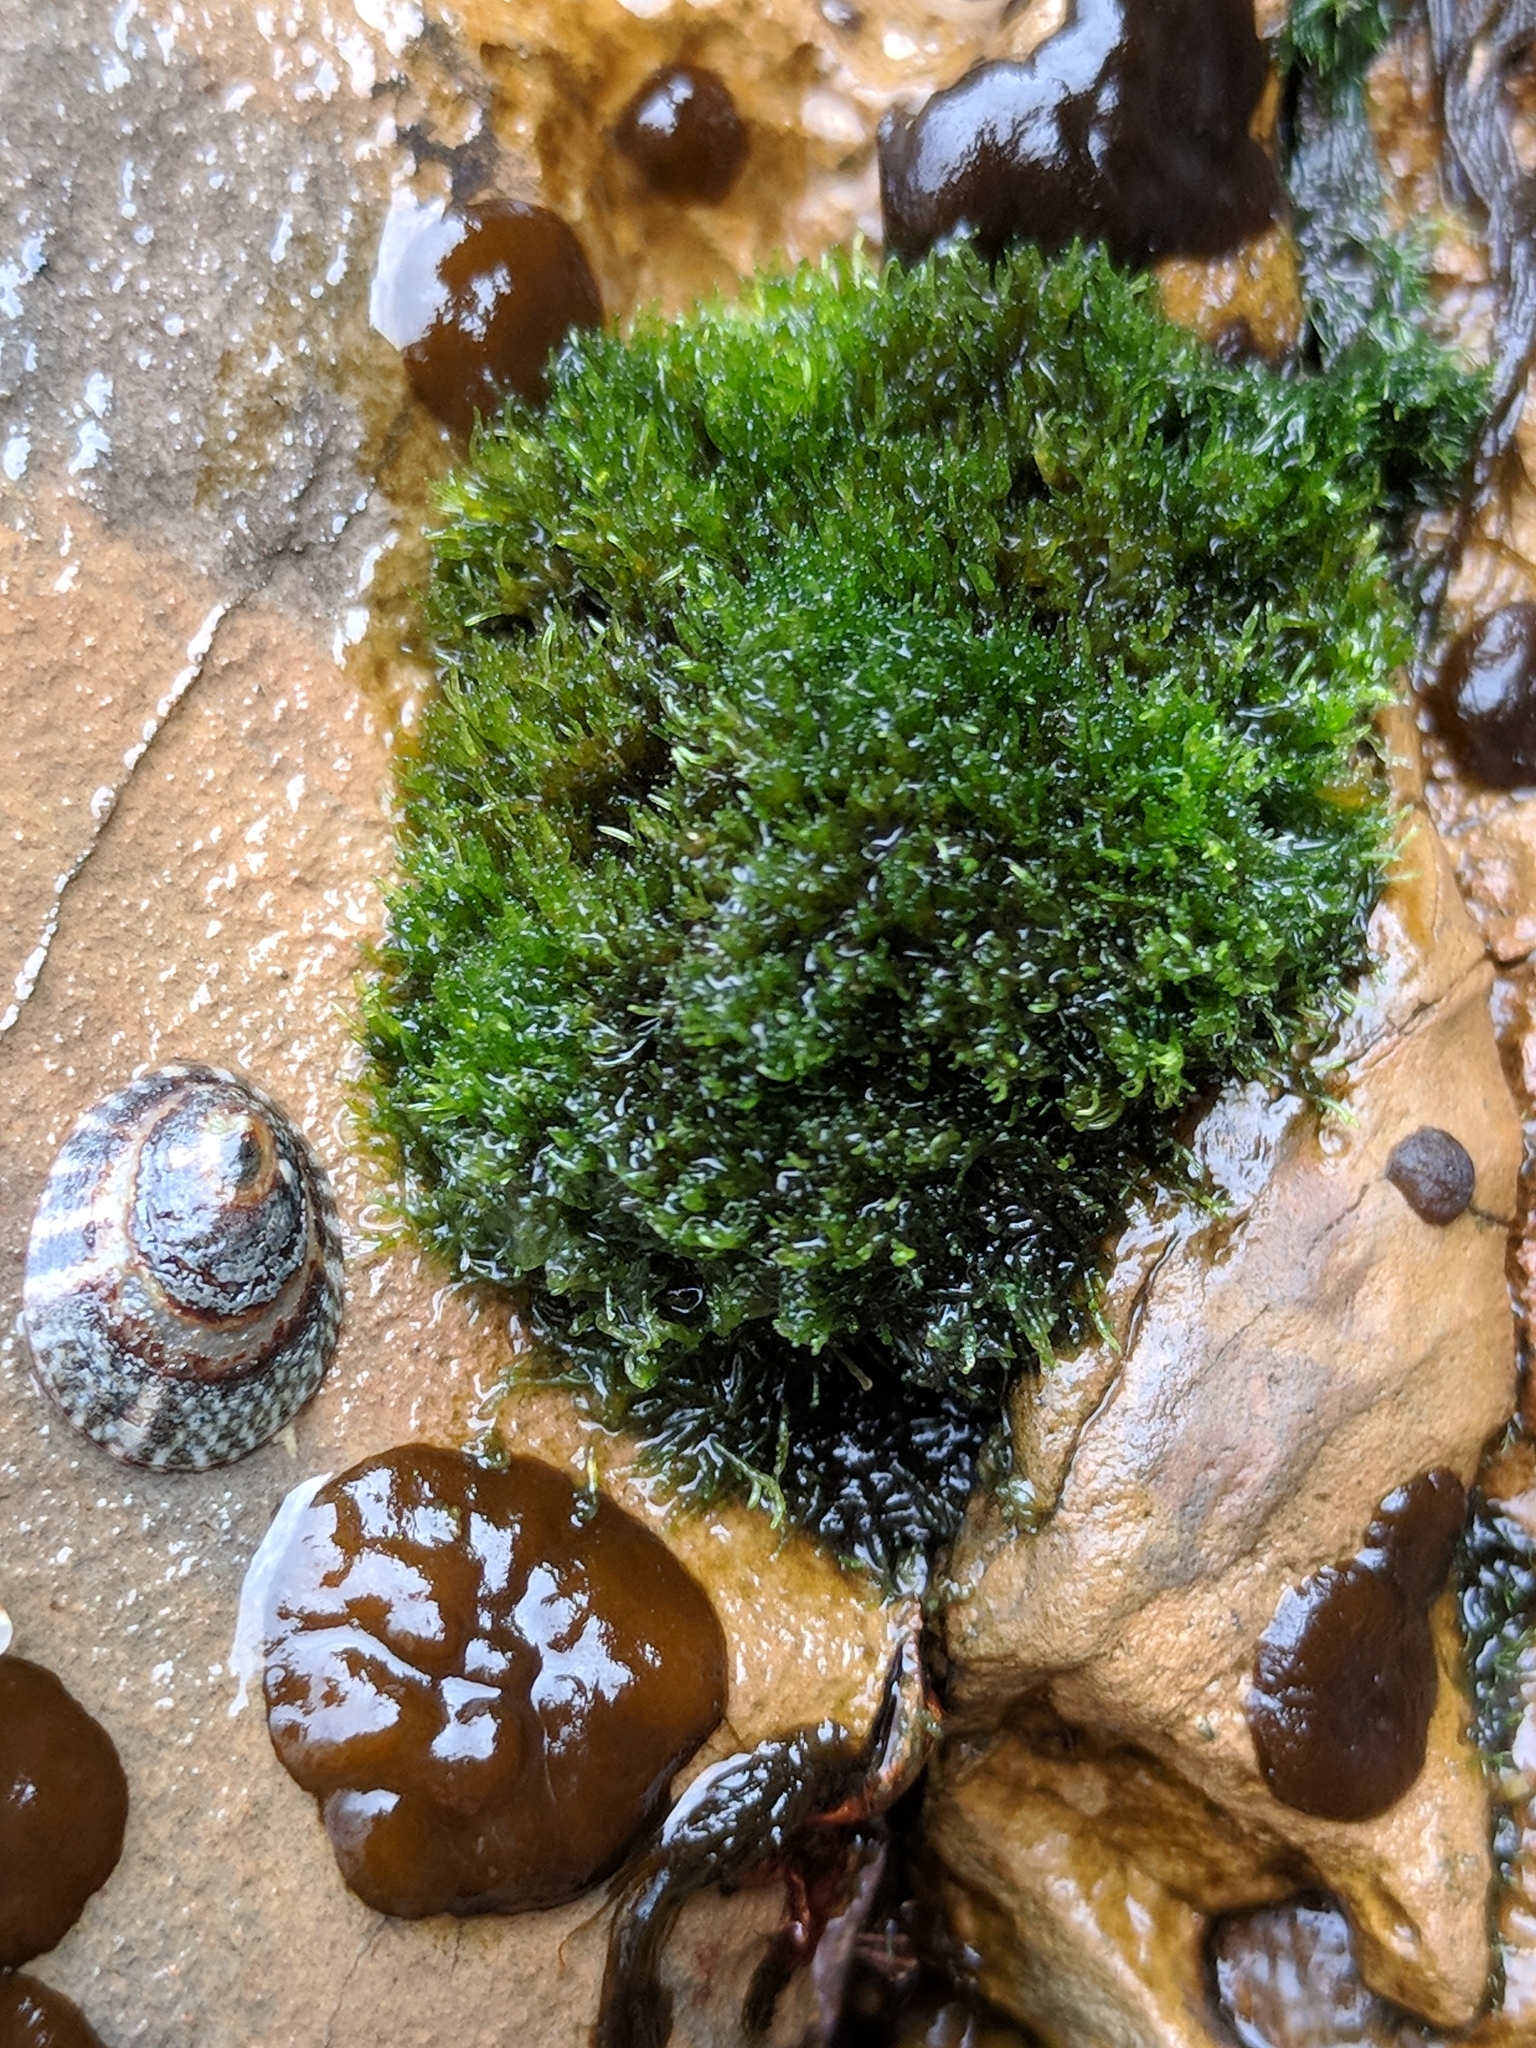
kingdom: Plantae
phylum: Chlorophyta
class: Ulvophyceae
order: Cladophorales
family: Cladophoraceae
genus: Cladophora
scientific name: Cladophora columbiana
